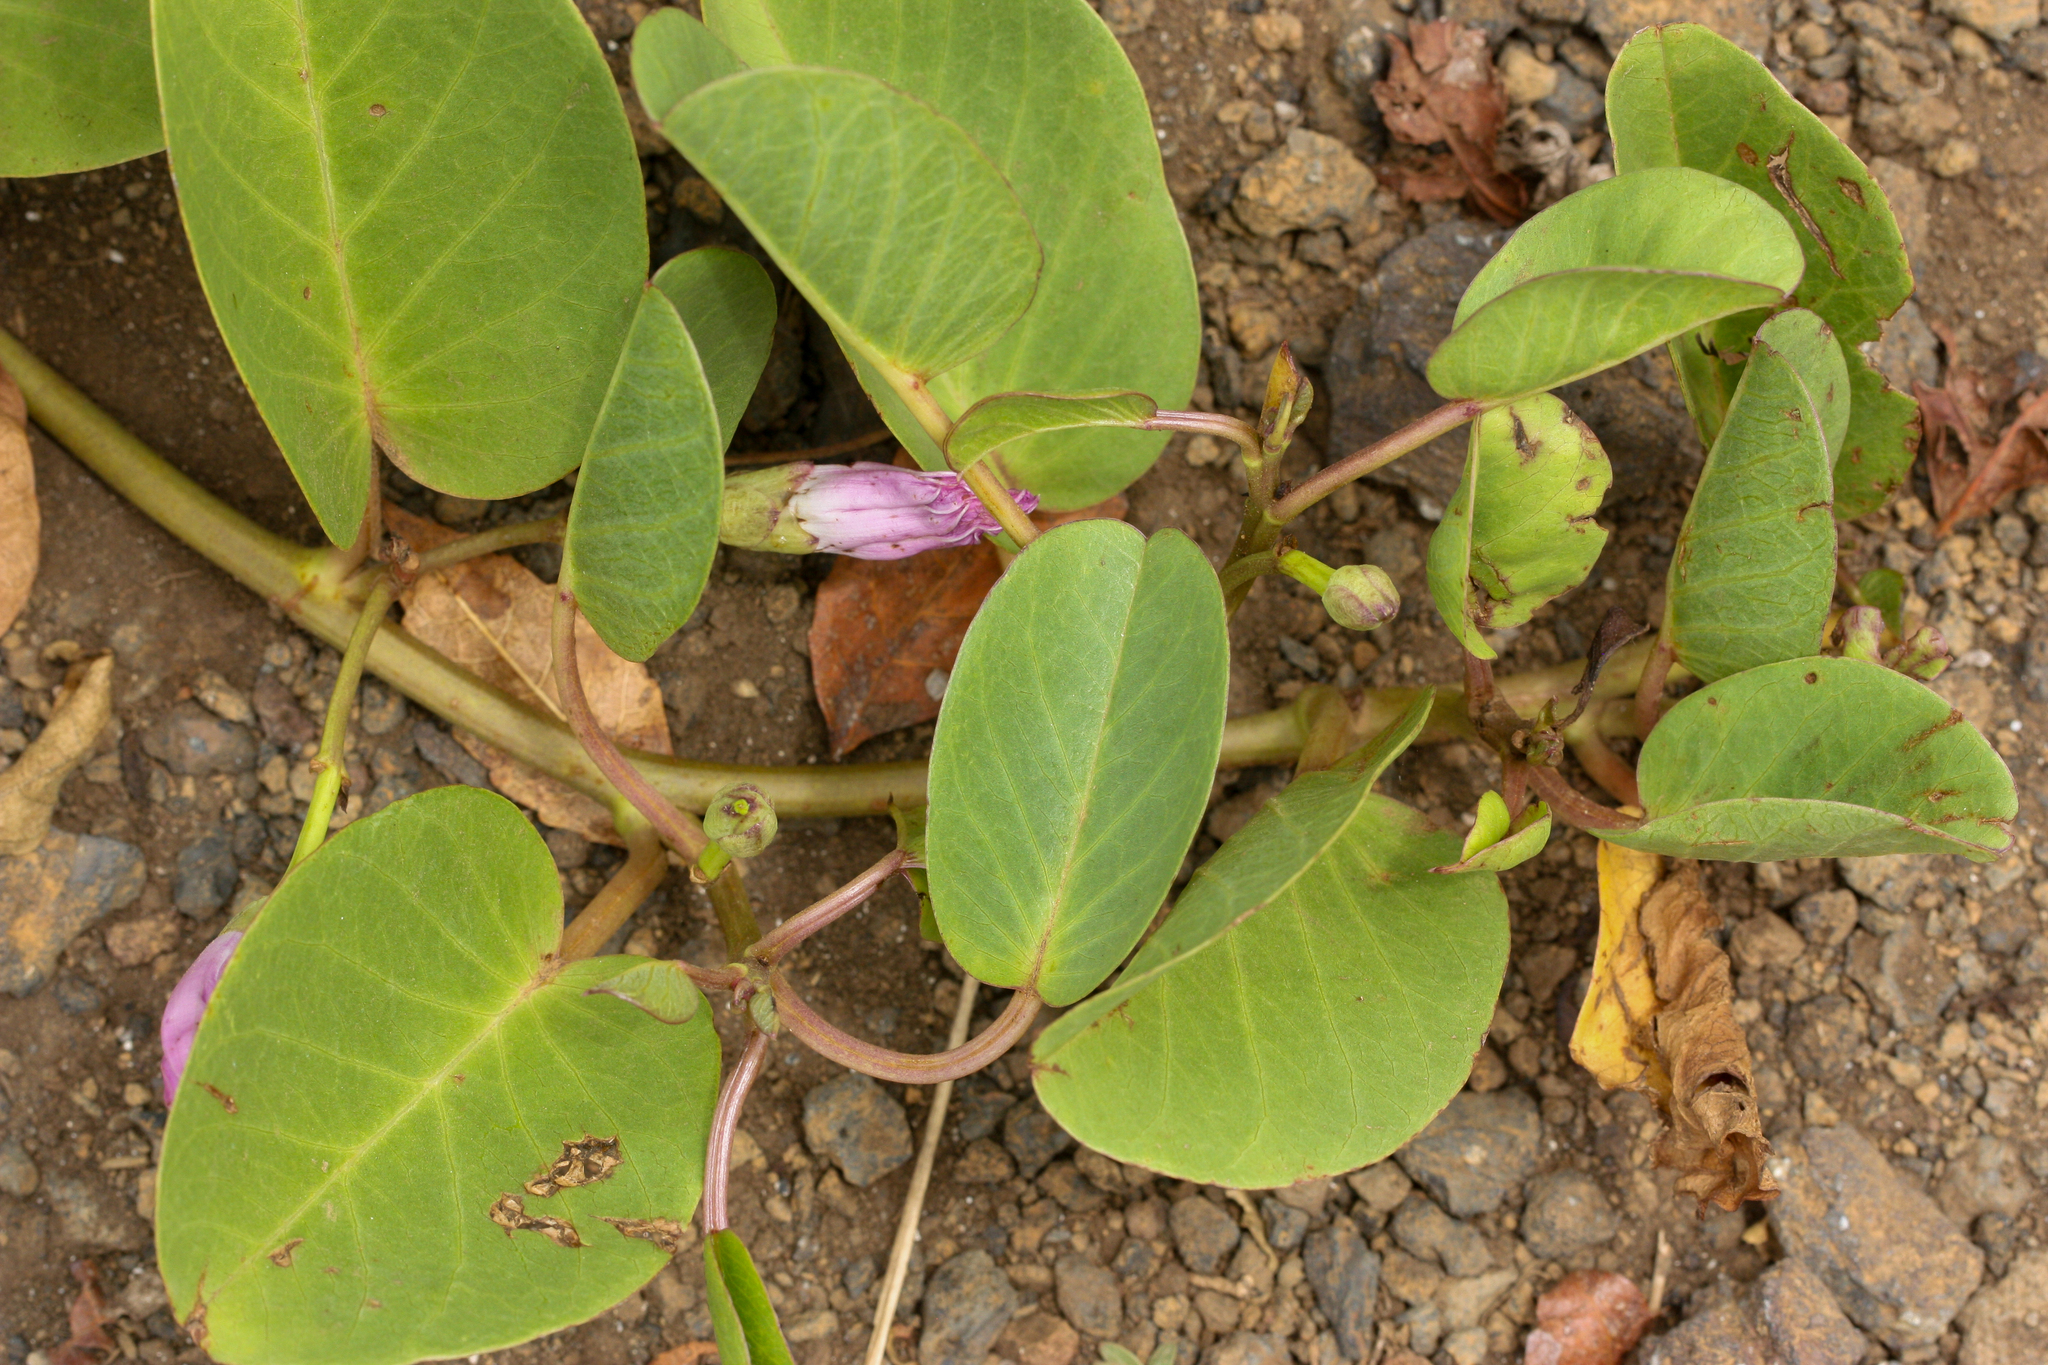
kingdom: Plantae
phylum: Tracheophyta
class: Magnoliopsida
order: Solanales
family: Convolvulaceae
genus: Ipomoea
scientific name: Ipomoea pes-caprae
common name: Beach morning glory
